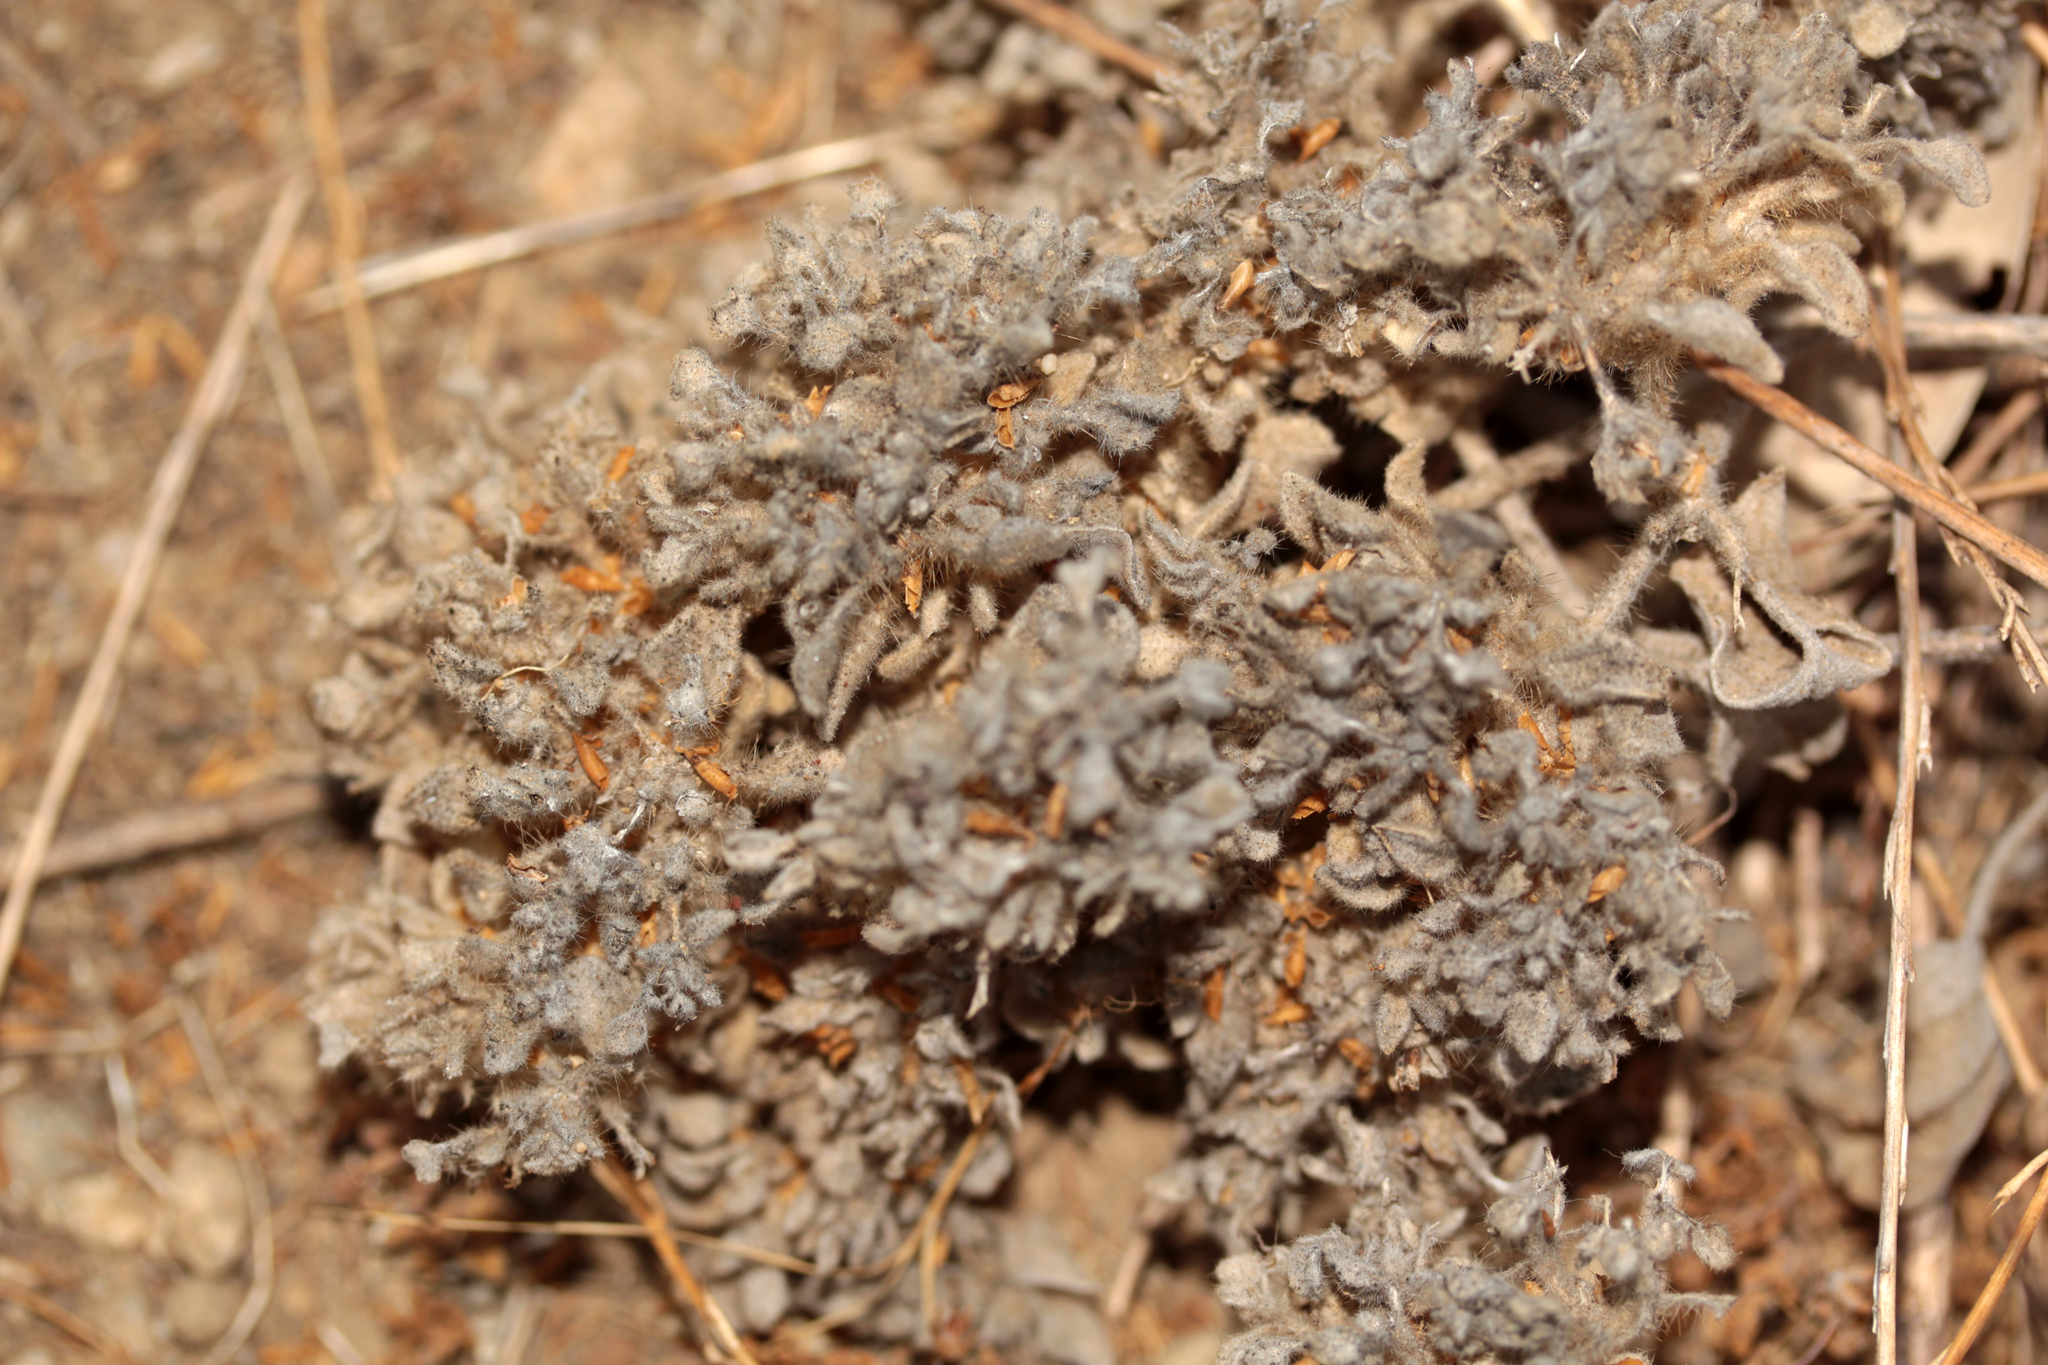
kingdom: Plantae
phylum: Tracheophyta
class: Magnoliopsida
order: Malpighiales
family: Euphorbiaceae
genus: Croton
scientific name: Croton setiger
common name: Dove weed
